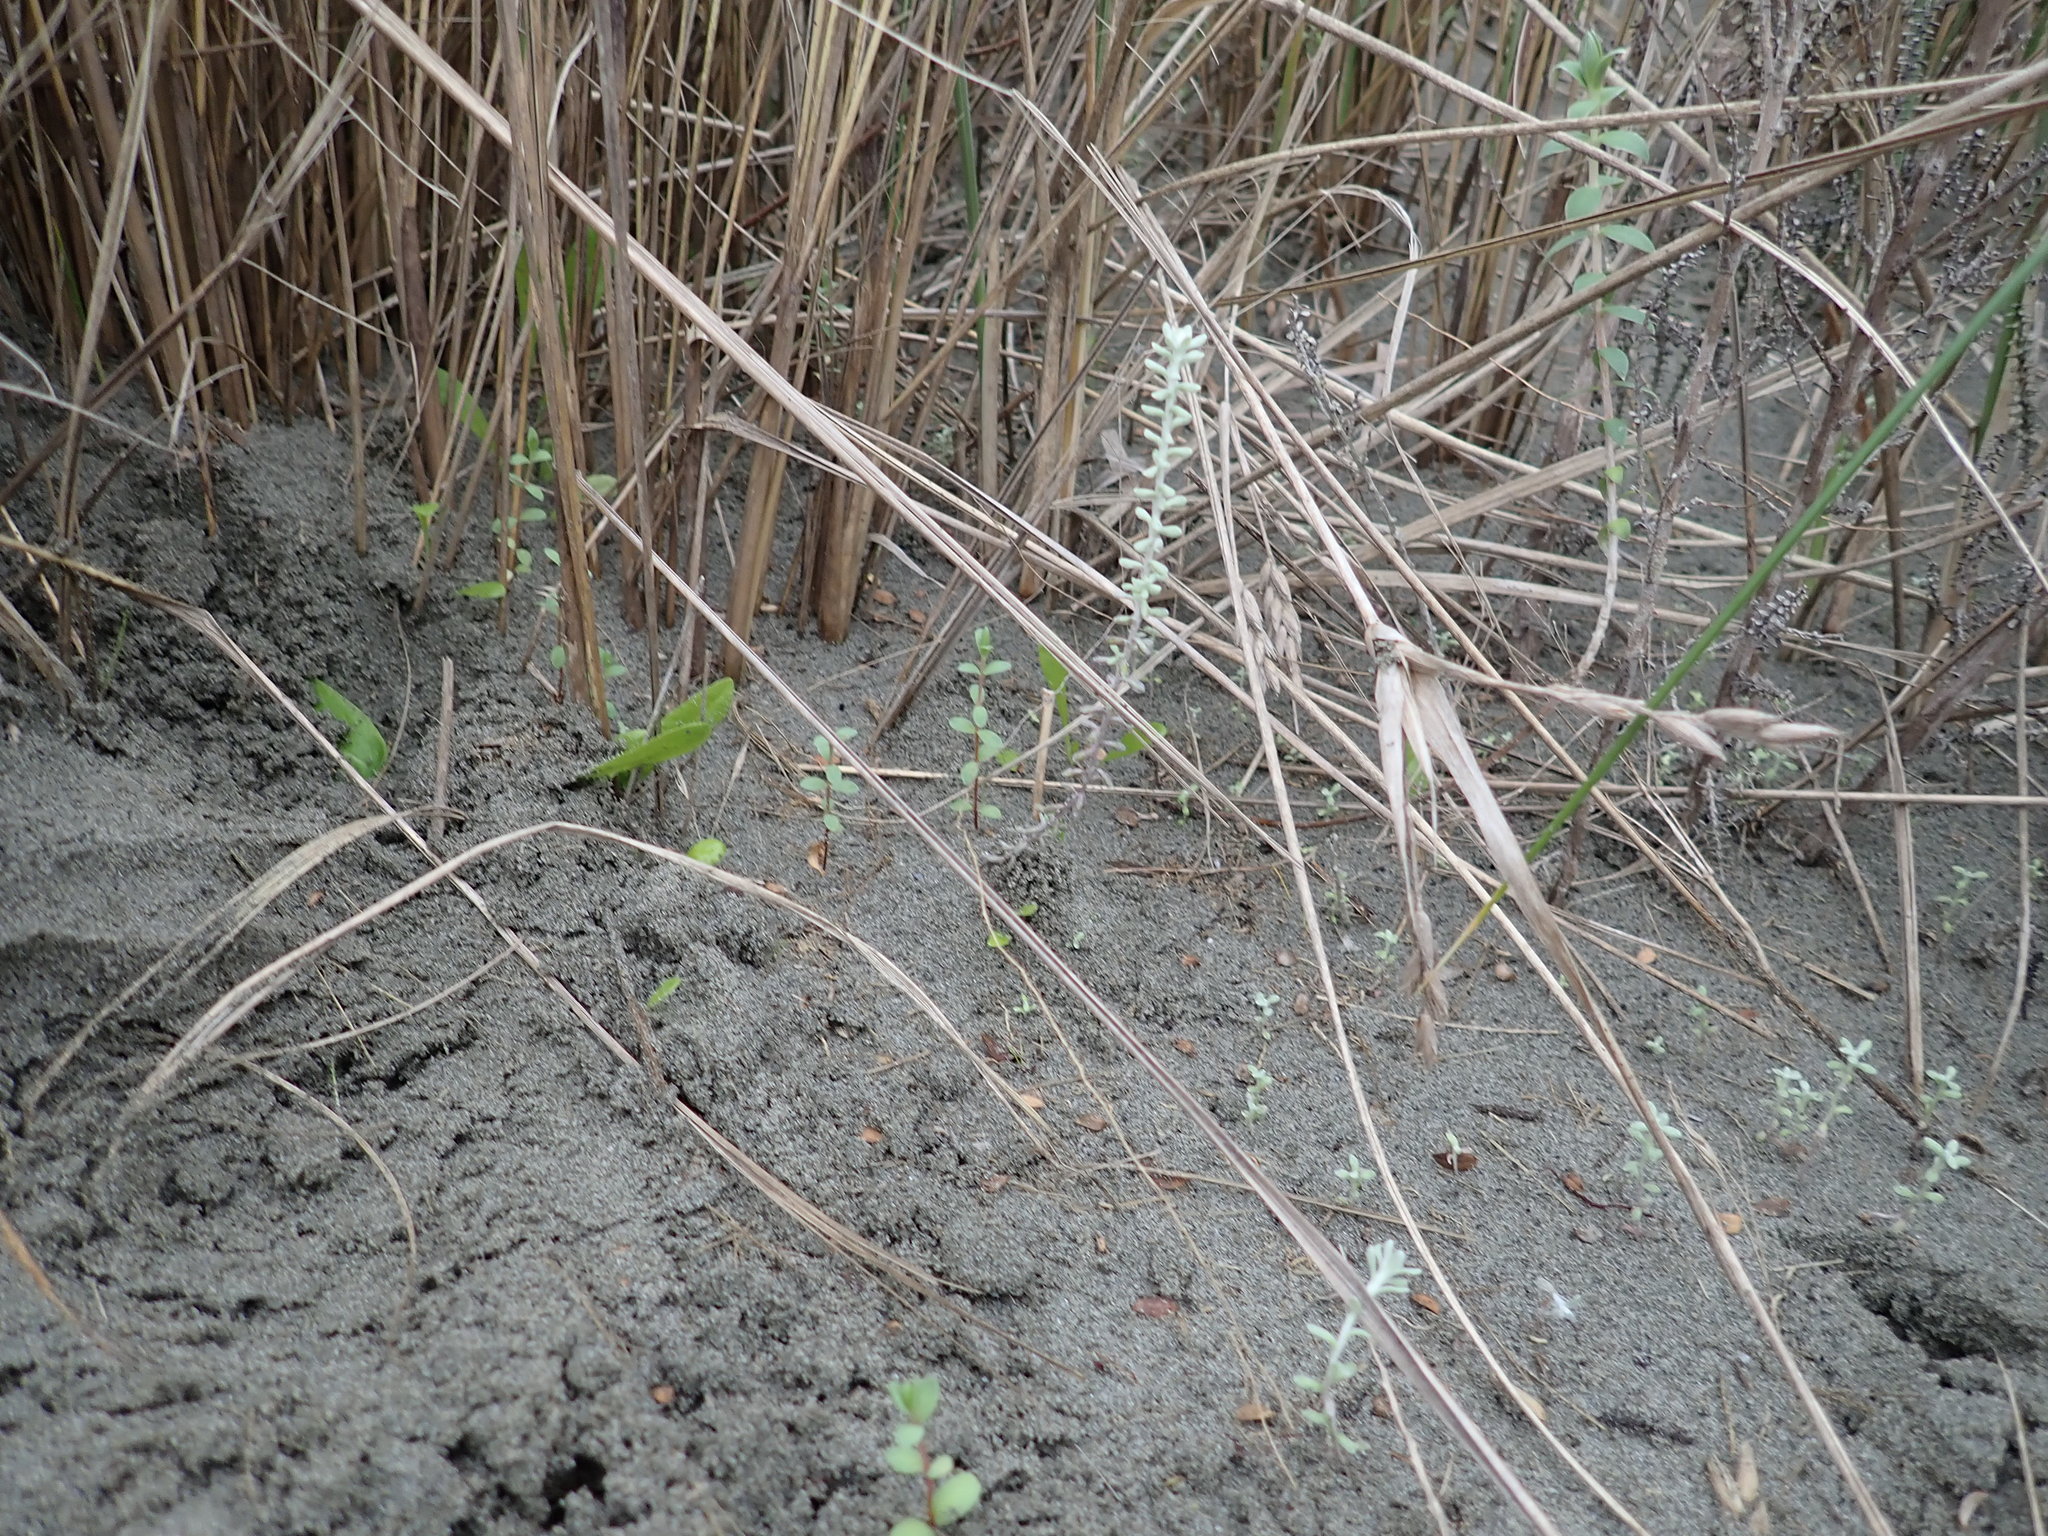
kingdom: Plantae
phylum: Tracheophyta
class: Magnoliopsida
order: Malvales
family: Thymelaeaceae
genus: Pimelea
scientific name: Pimelea villosa
